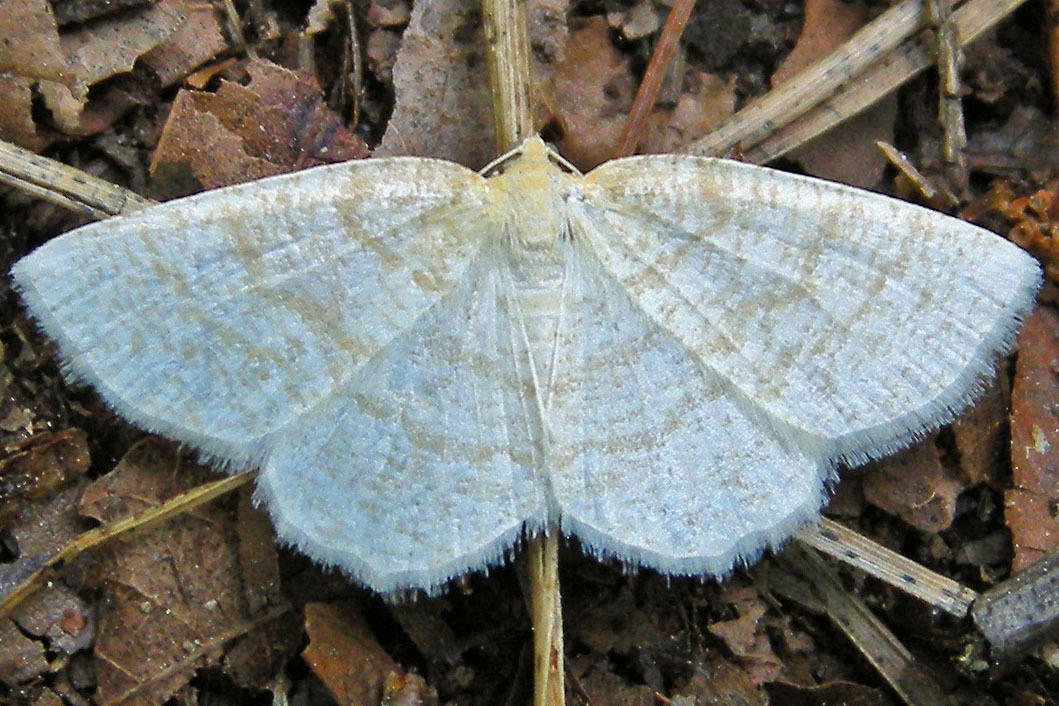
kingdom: Animalia
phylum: Arthropoda
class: Insecta
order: Lepidoptera
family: Geometridae
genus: Gueneria
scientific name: Gueneria similaria
